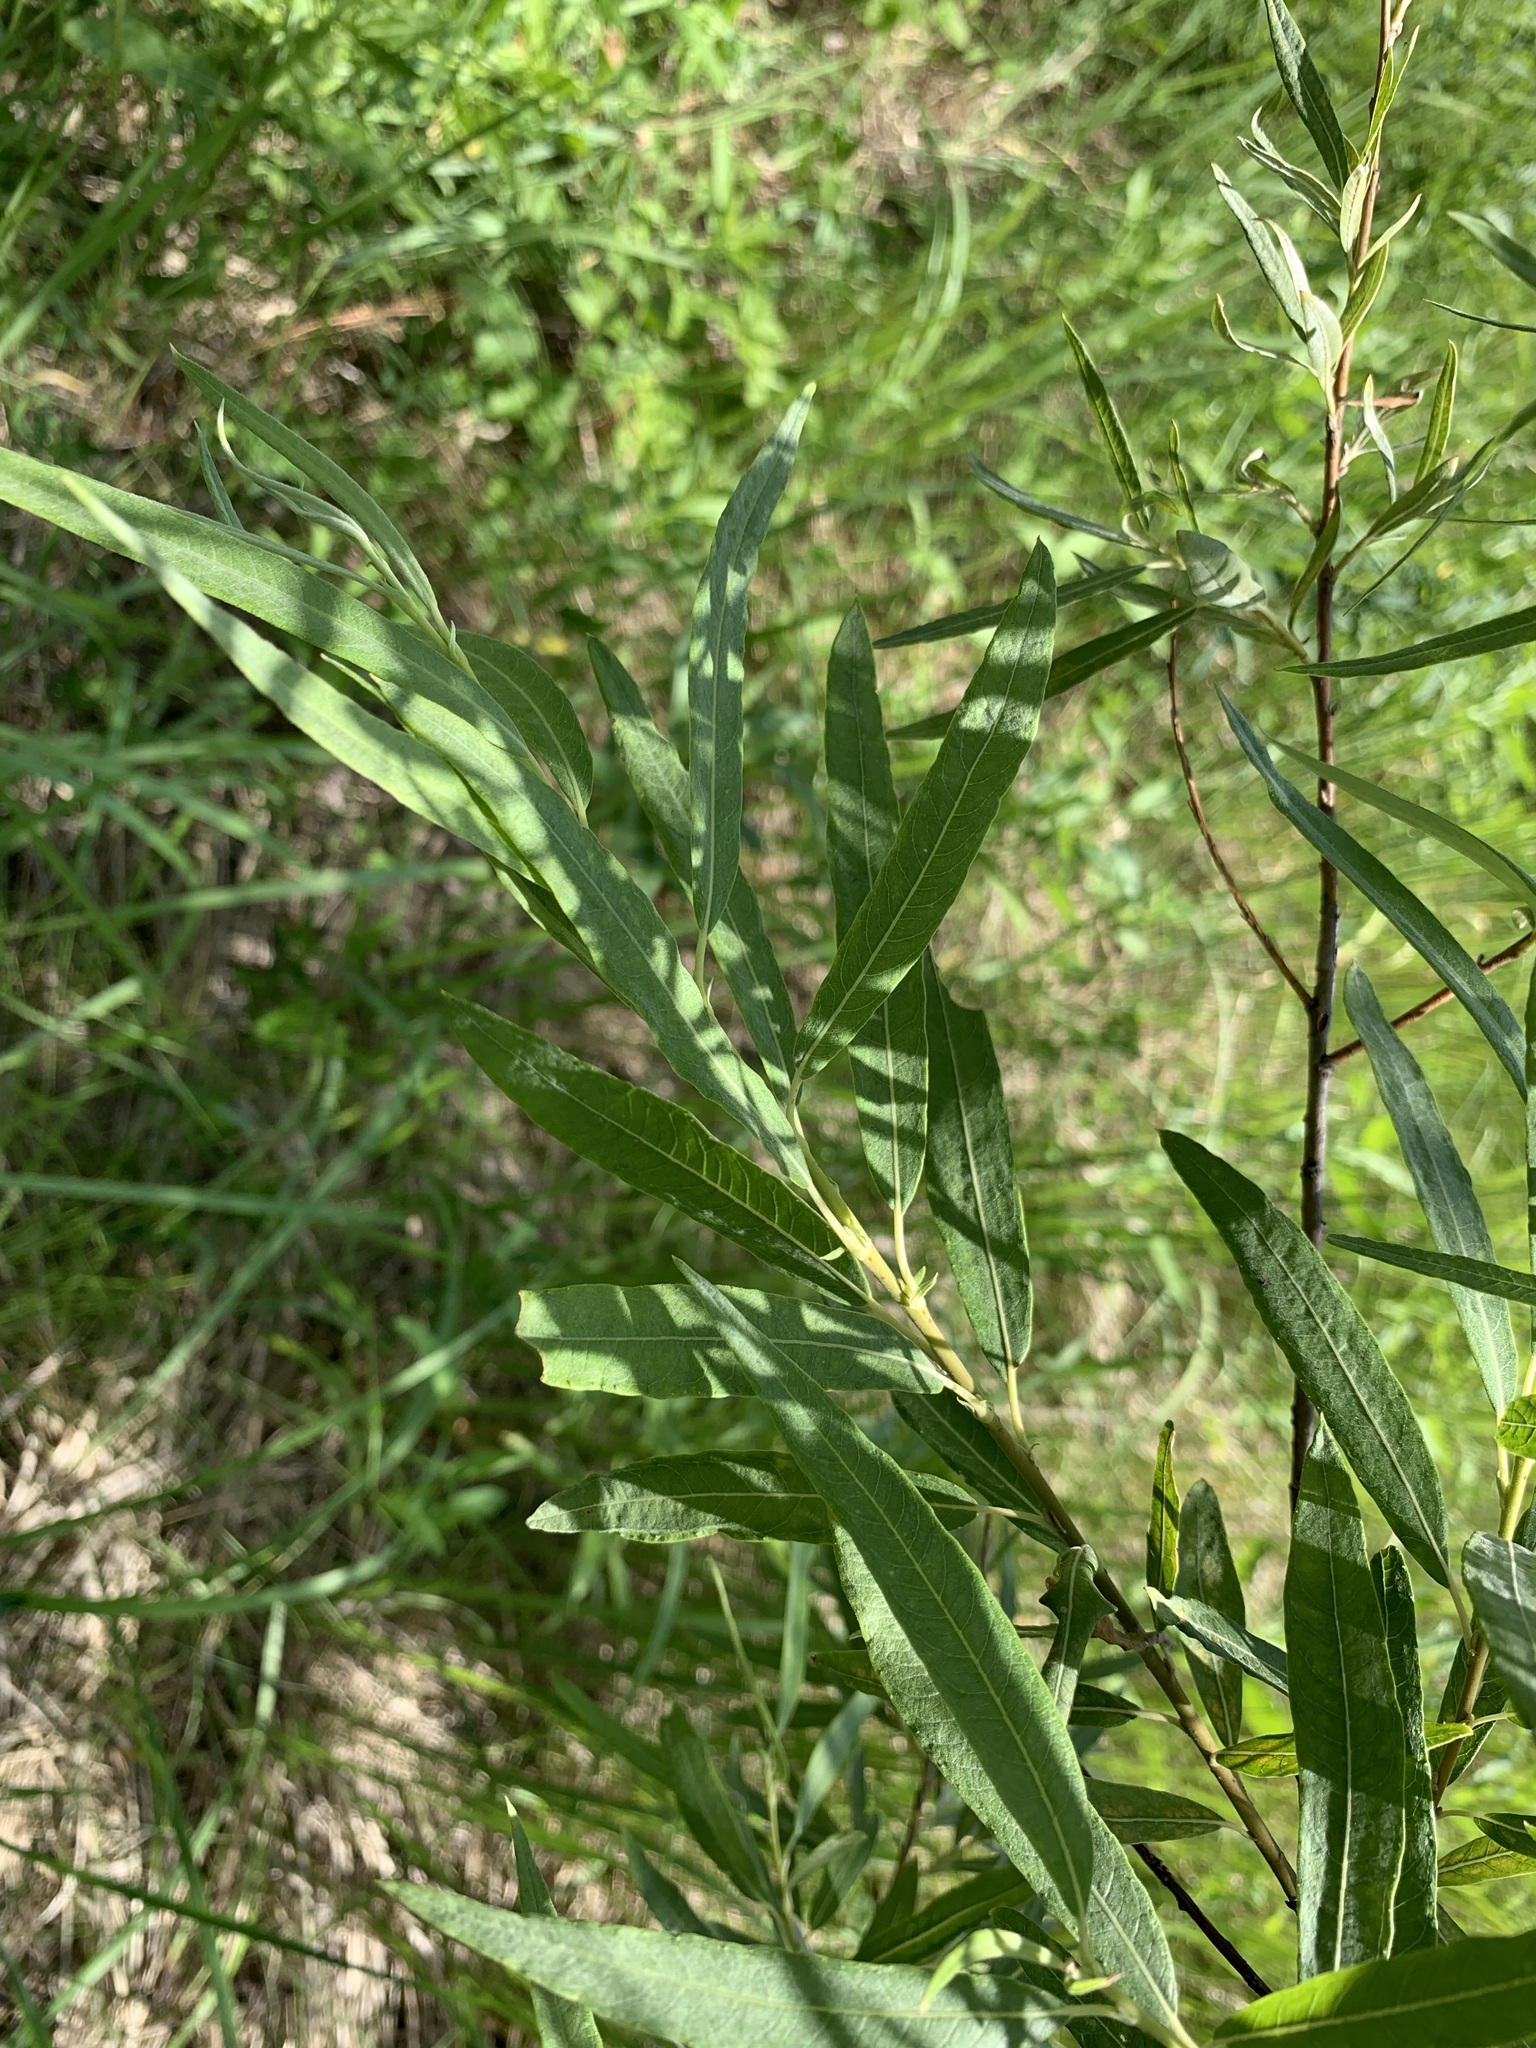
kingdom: Plantae
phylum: Tracheophyta
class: Magnoliopsida
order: Malpighiales
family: Salicaceae
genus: Salix
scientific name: Salix gmelinii
